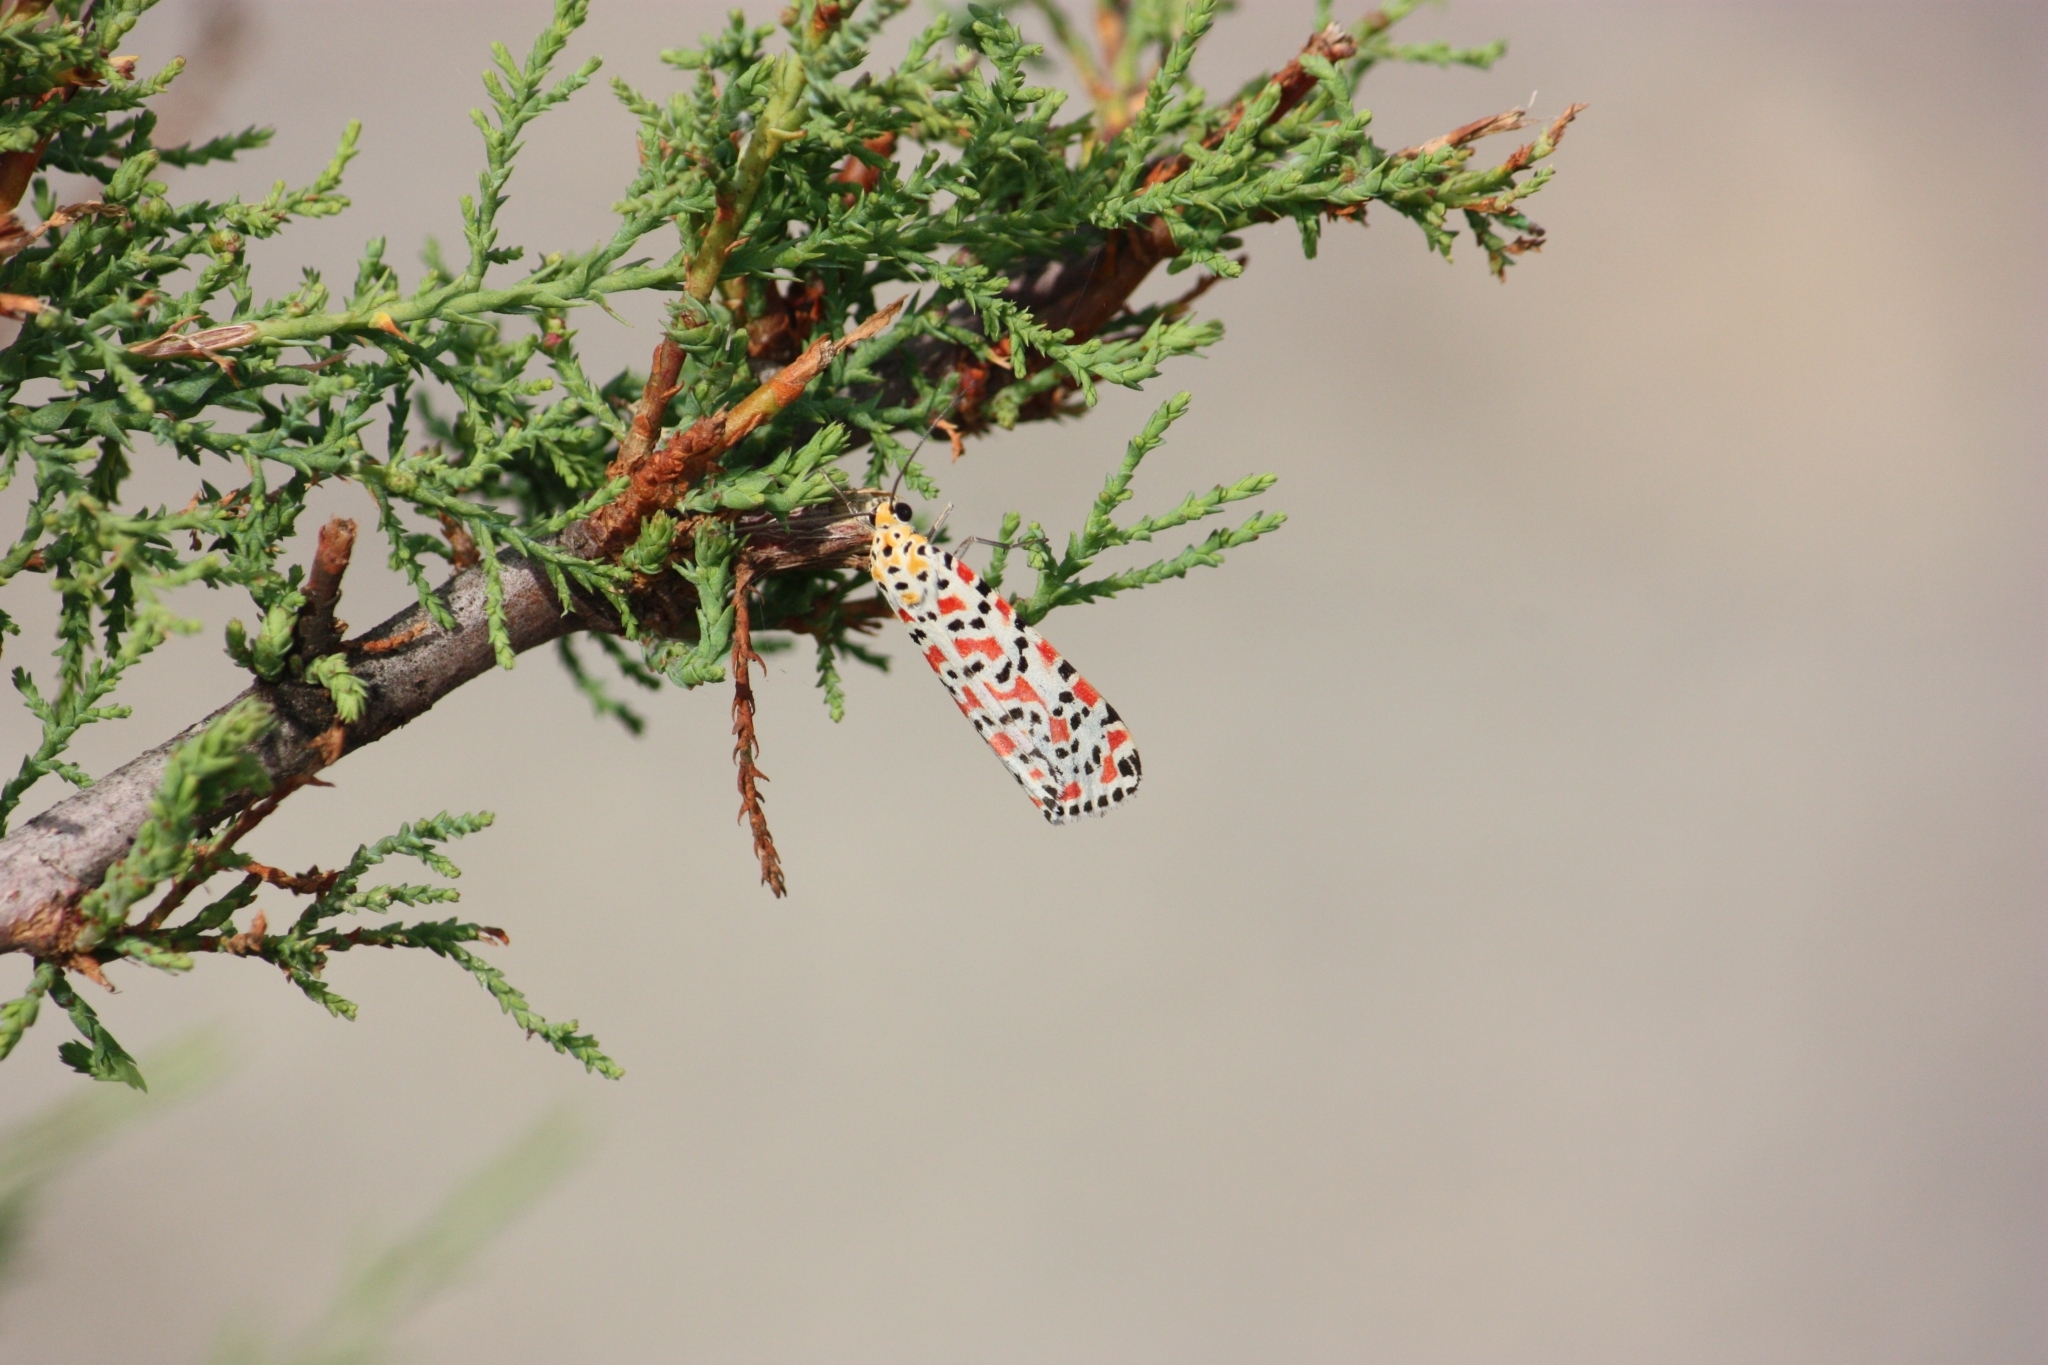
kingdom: Animalia
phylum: Arthropoda
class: Insecta
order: Lepidoptera
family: Erebidae
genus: Utetheisa
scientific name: Utetheisa pulchella
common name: Crimson speckled
